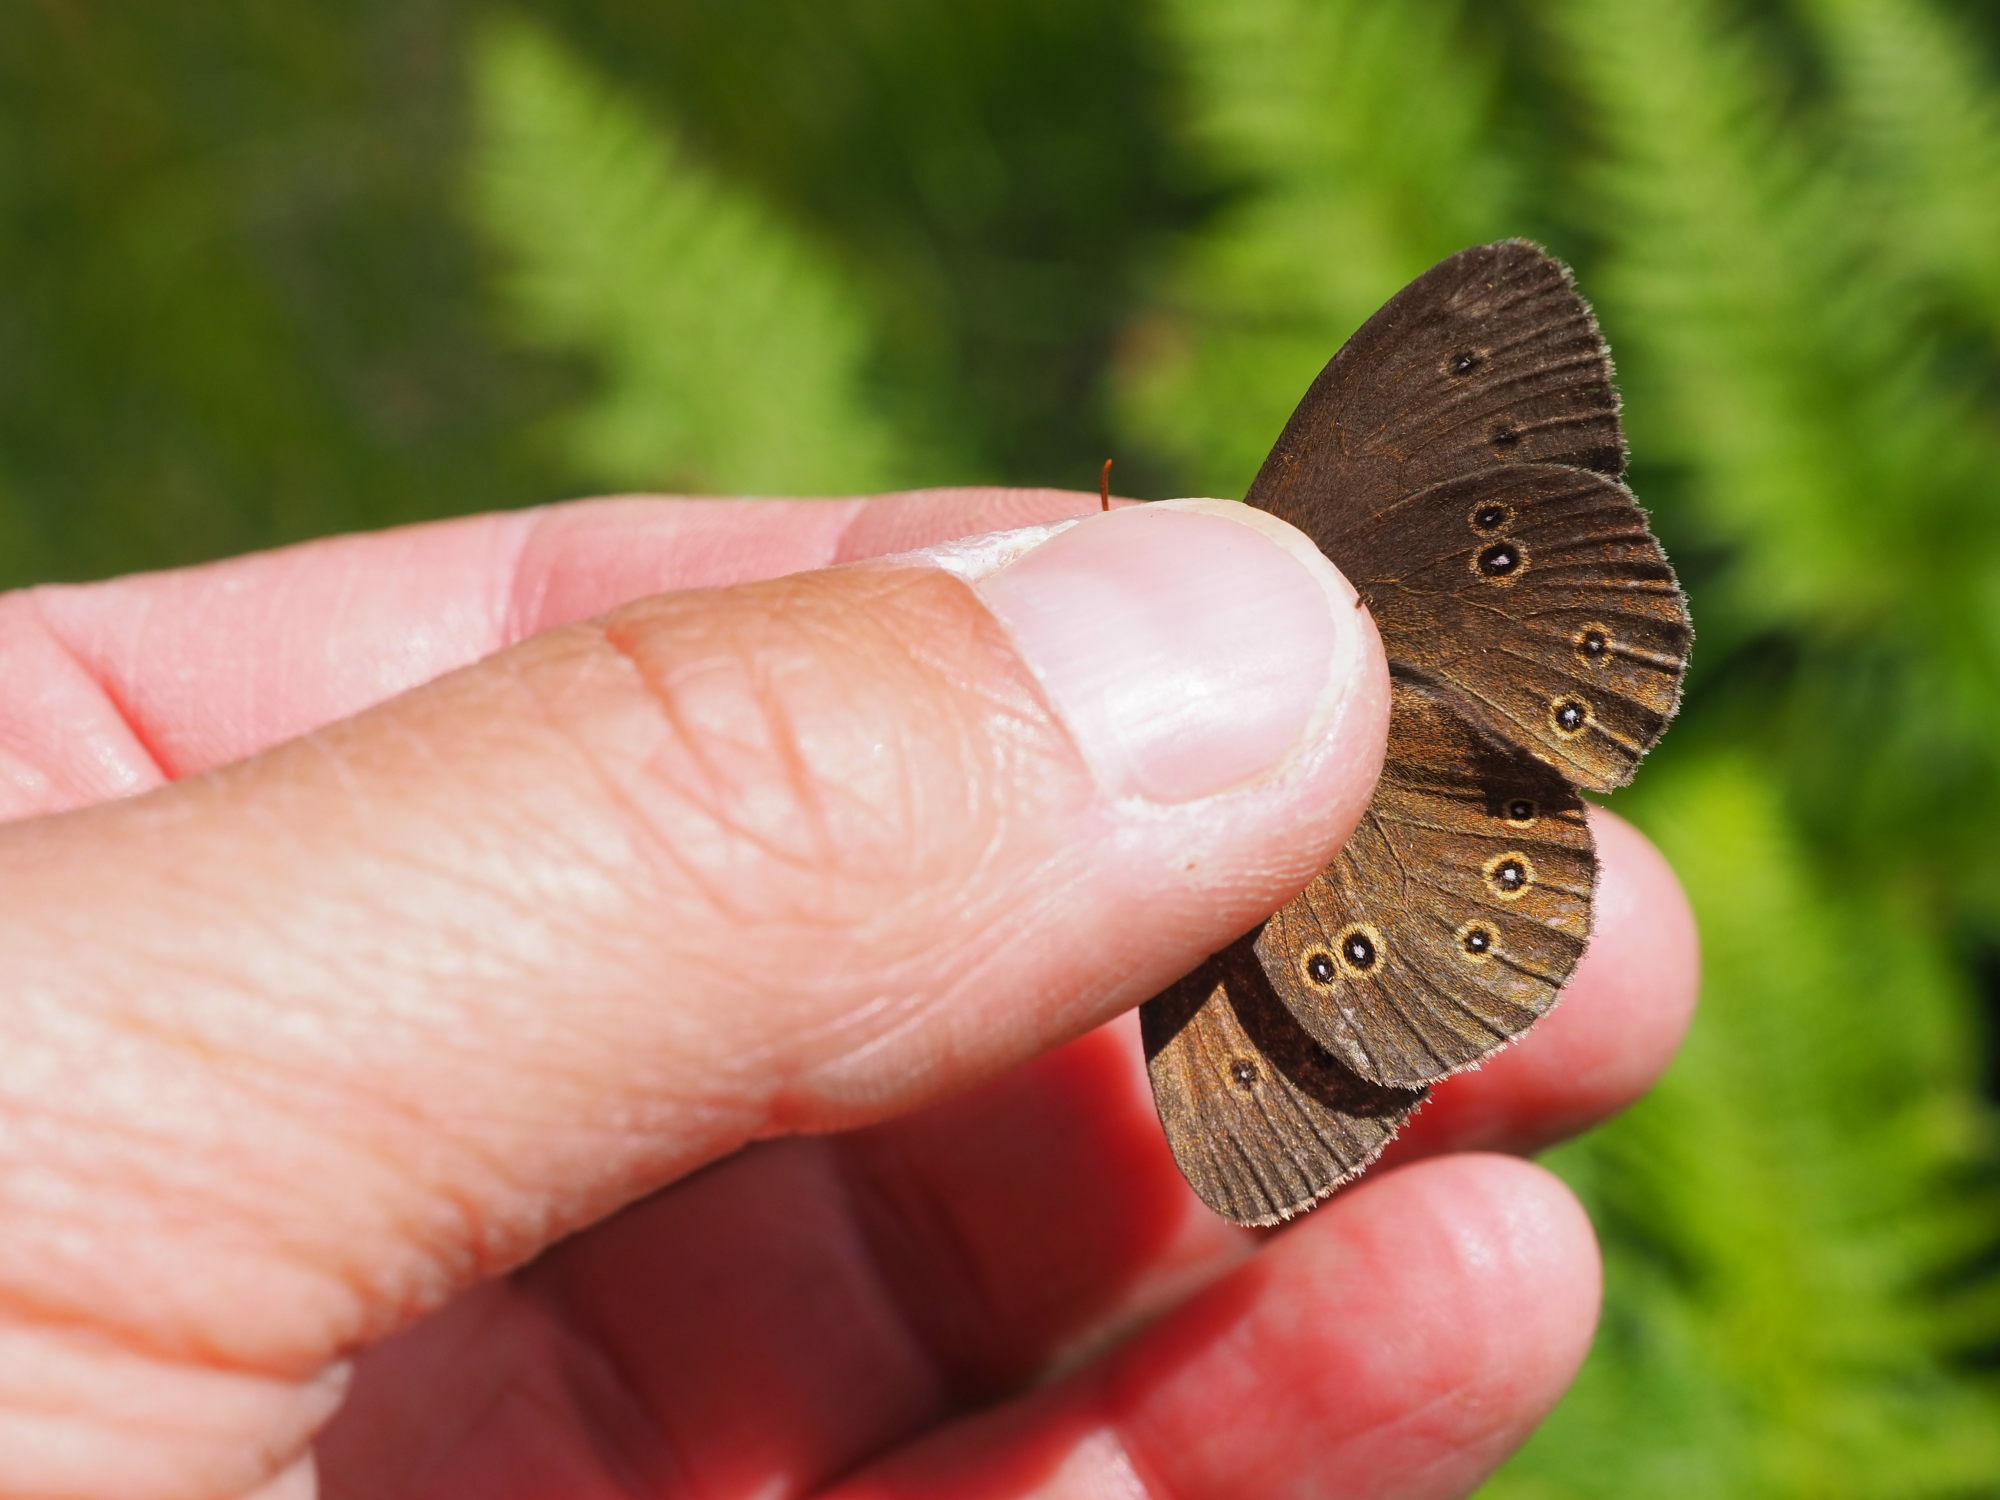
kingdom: Animalia
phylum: Arthropoda
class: Insecta
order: Lepidoptera
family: Nymphalidae
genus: Aphantopus
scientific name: Aphantopus hyperantus
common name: Ringlet
